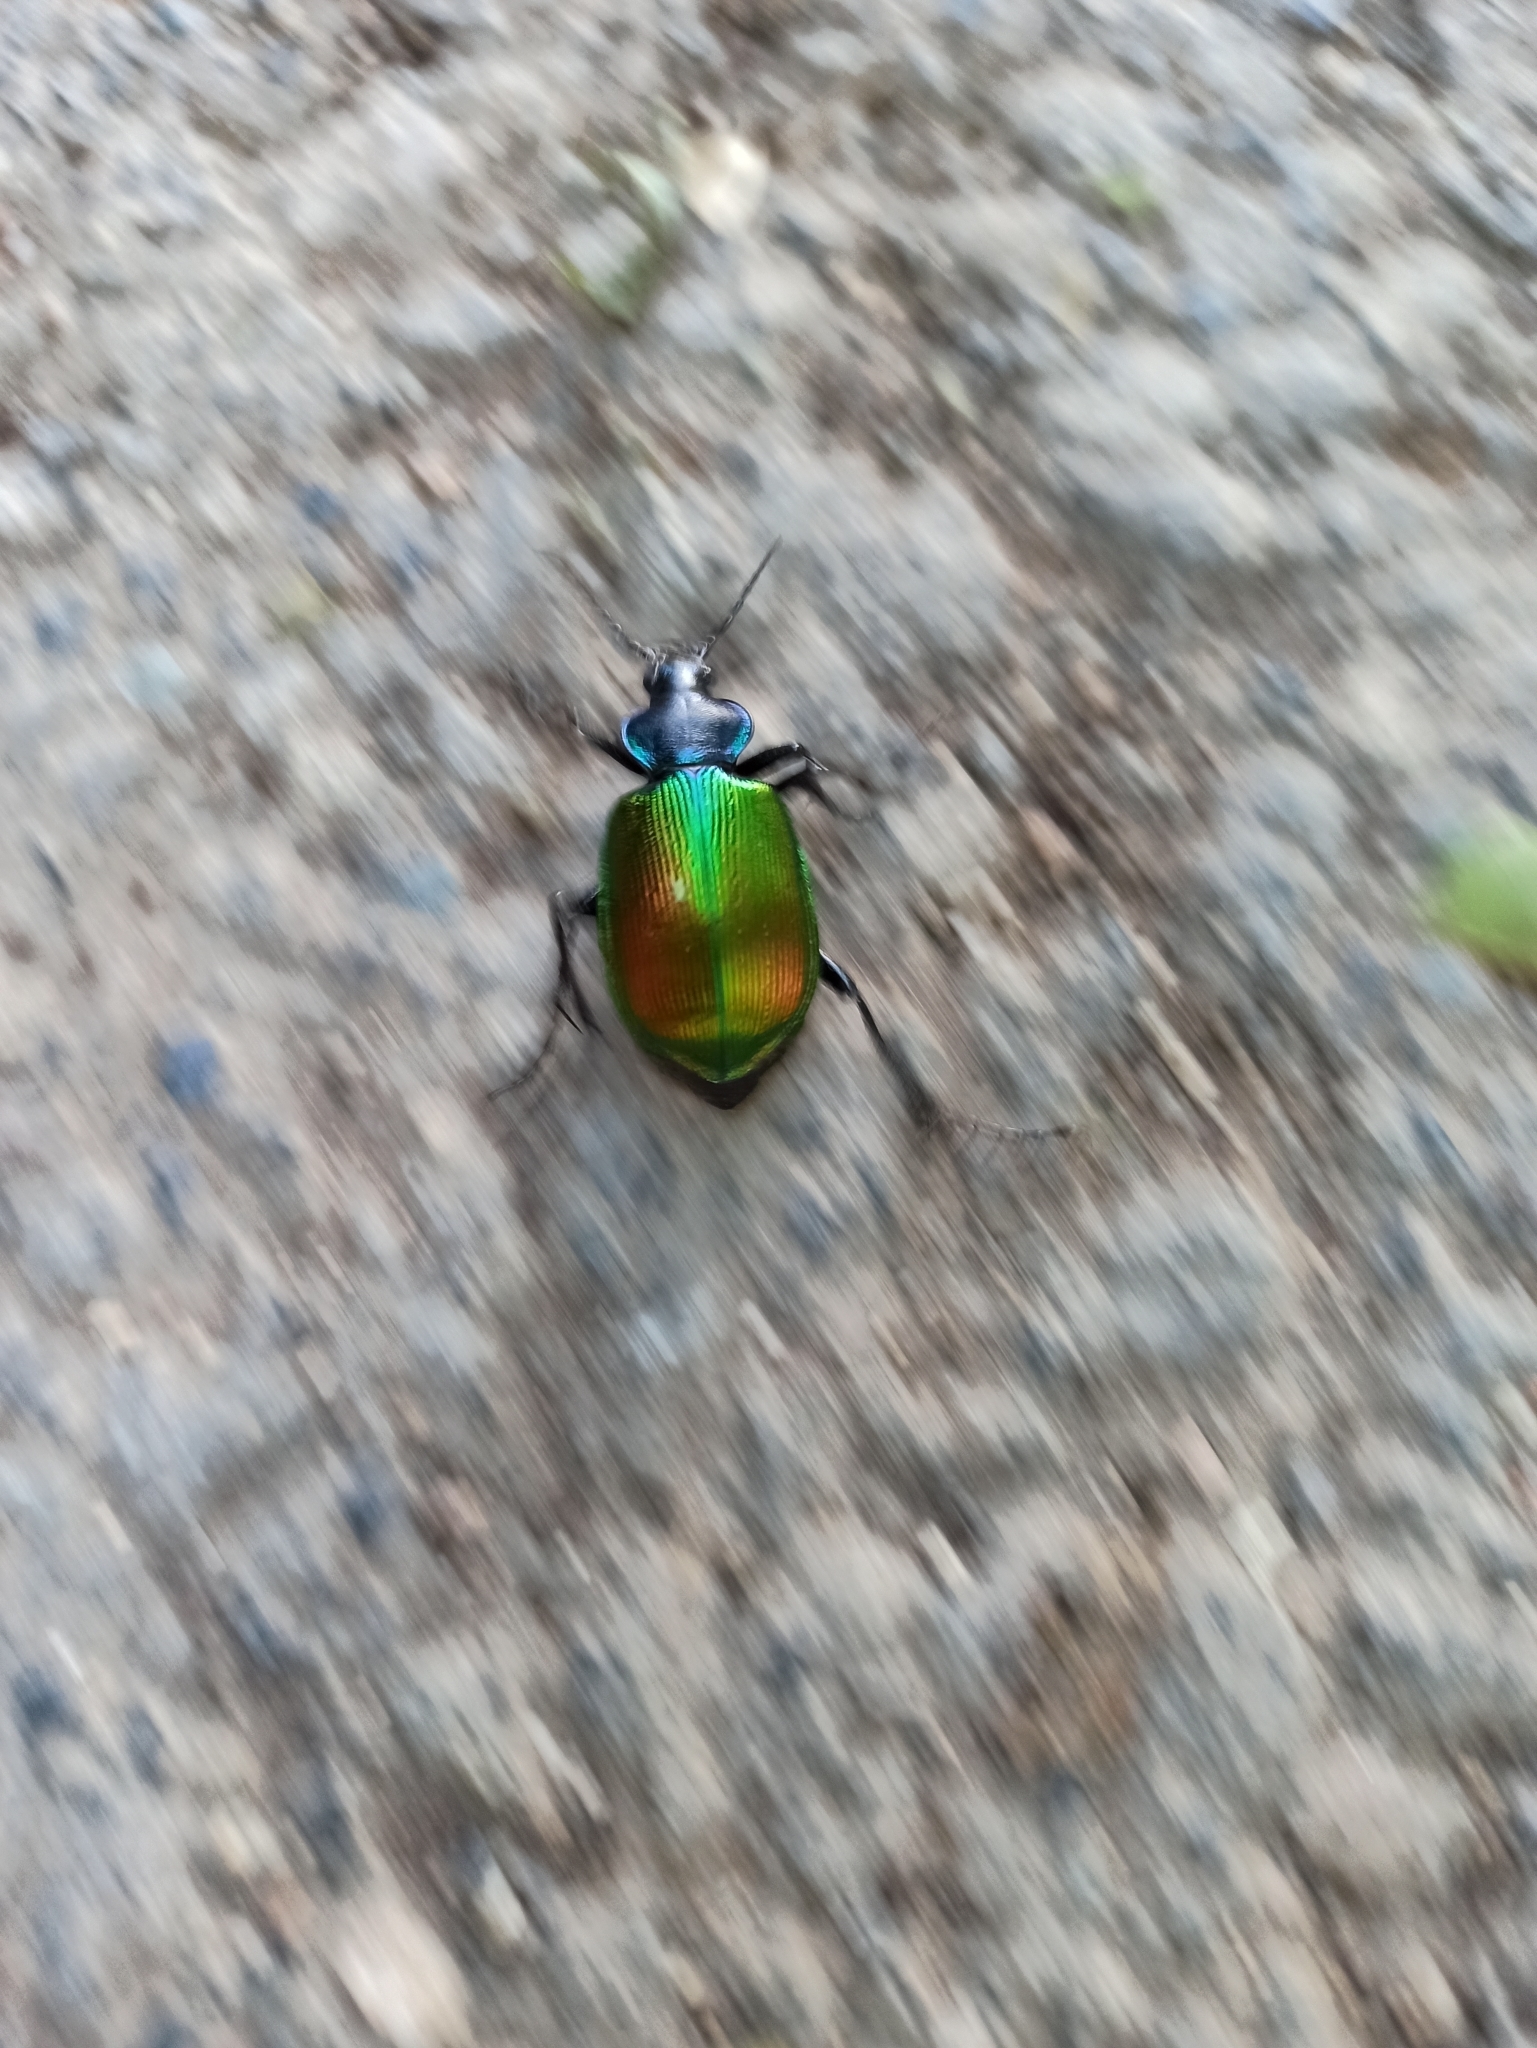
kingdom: Animalia
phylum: Arthropoda
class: Insecta
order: Coleoptera
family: Carabidae
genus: Calosoma
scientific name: Calosoma sycophanta
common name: Forest caterpillar hunter
